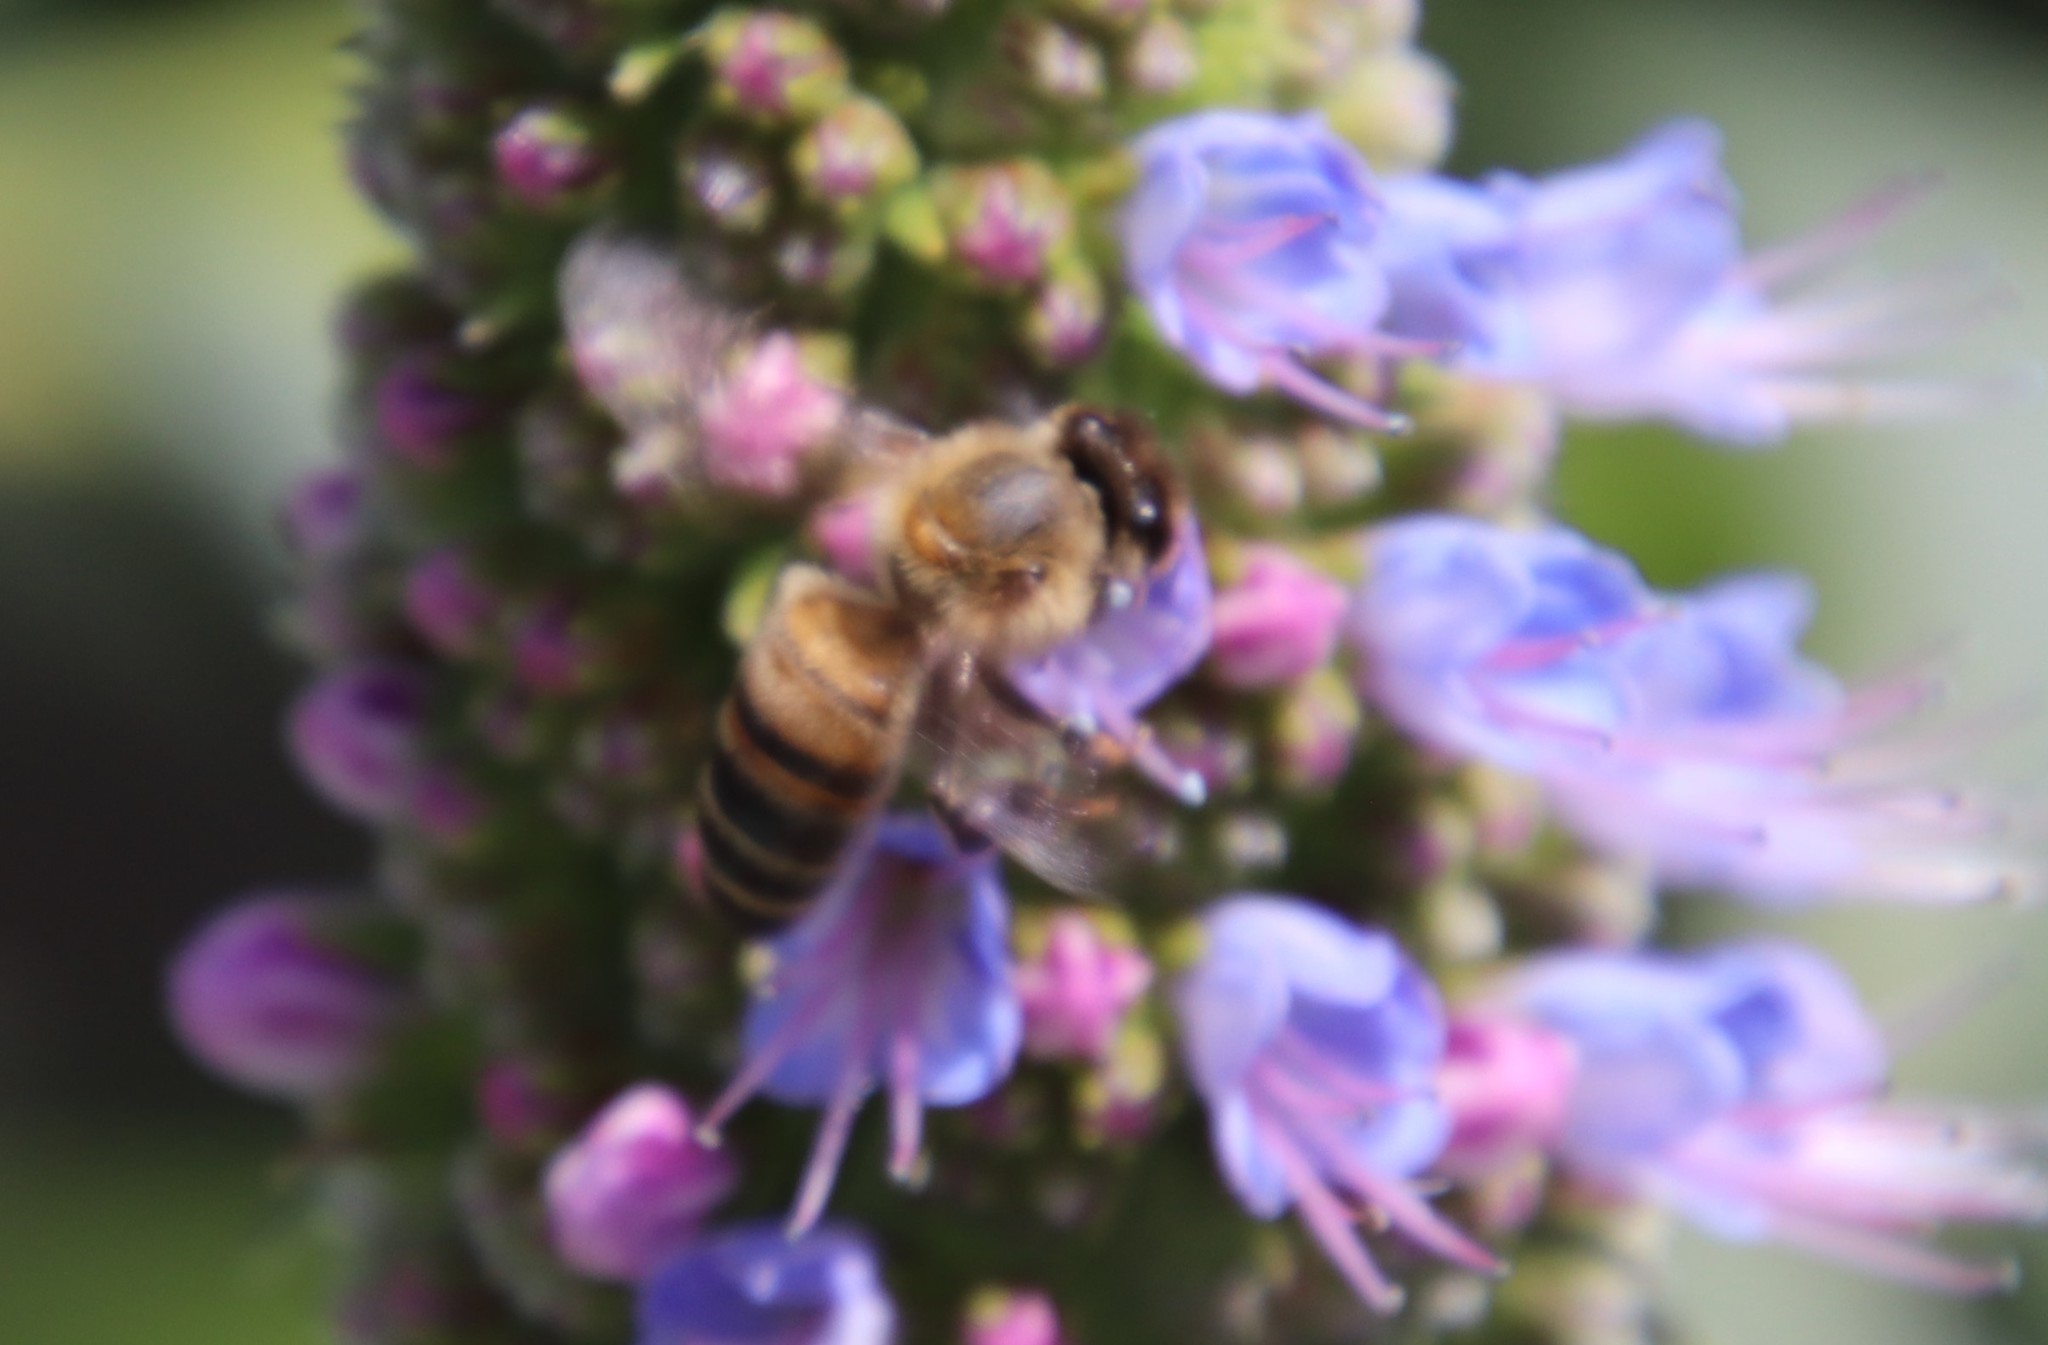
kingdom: Animalia
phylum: Arthropoda
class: Insecta
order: Hymenoptera
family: Apidae
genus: Apis
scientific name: Apis mellifera
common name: Honey bee
